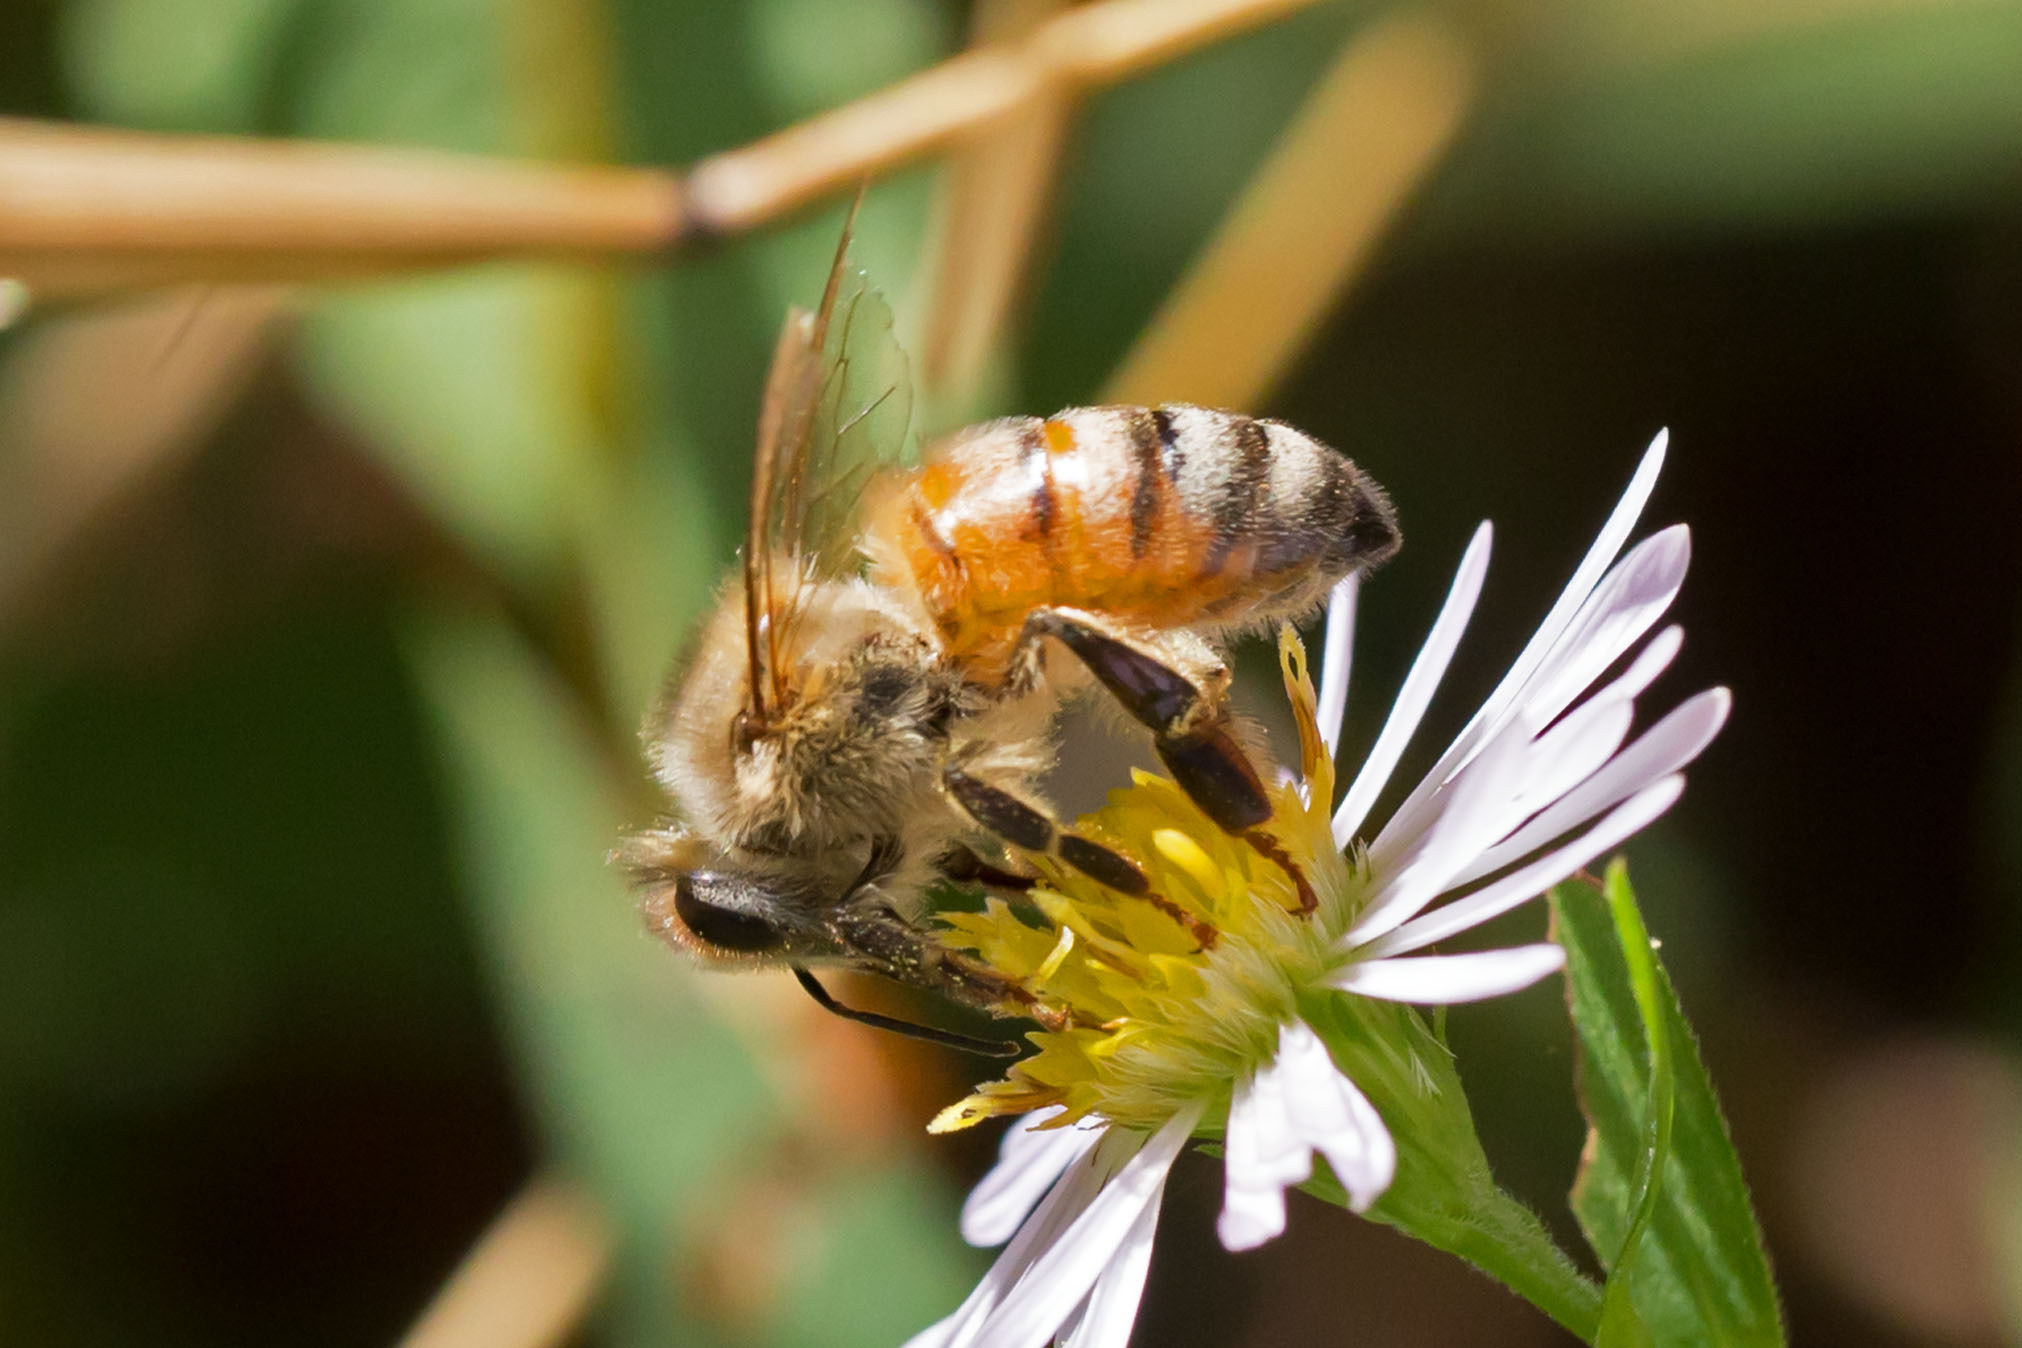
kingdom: Animalia
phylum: Arthropoda
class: Insecta
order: Hymenoptera
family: Apidae
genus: Apis
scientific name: Apis mellifera
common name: Honey bee
